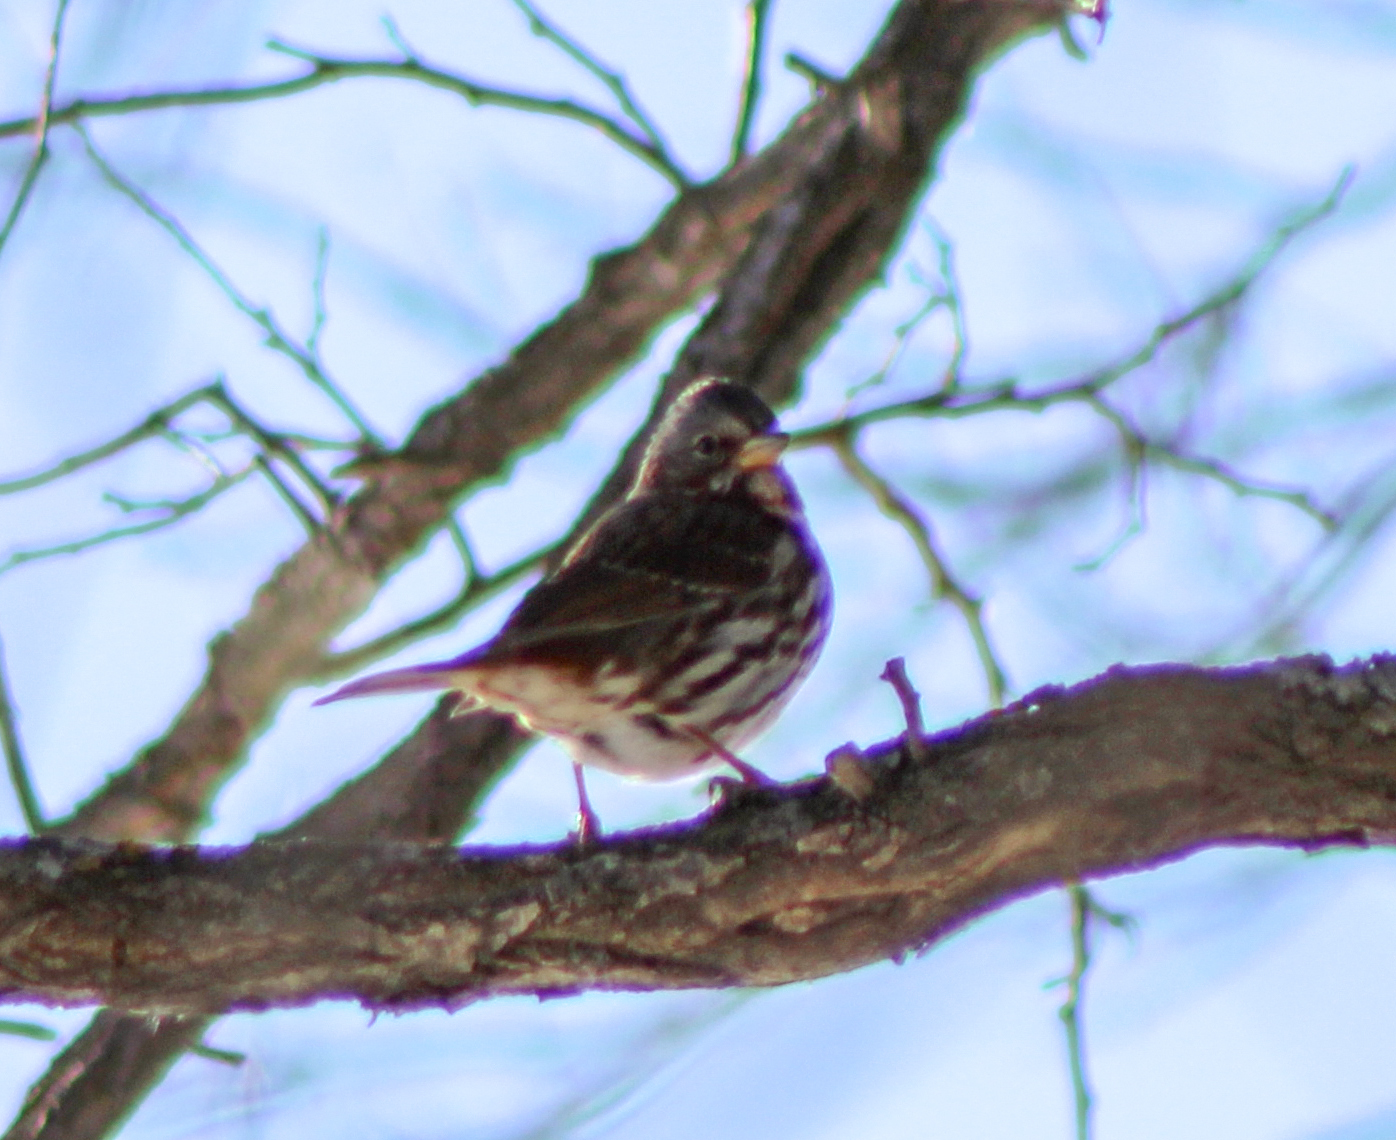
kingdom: Animalia
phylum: Chordata
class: Aves
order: Passeriformes
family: Passerellidae
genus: Passerella
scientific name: Passerella iliaca
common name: Fox sparrow
